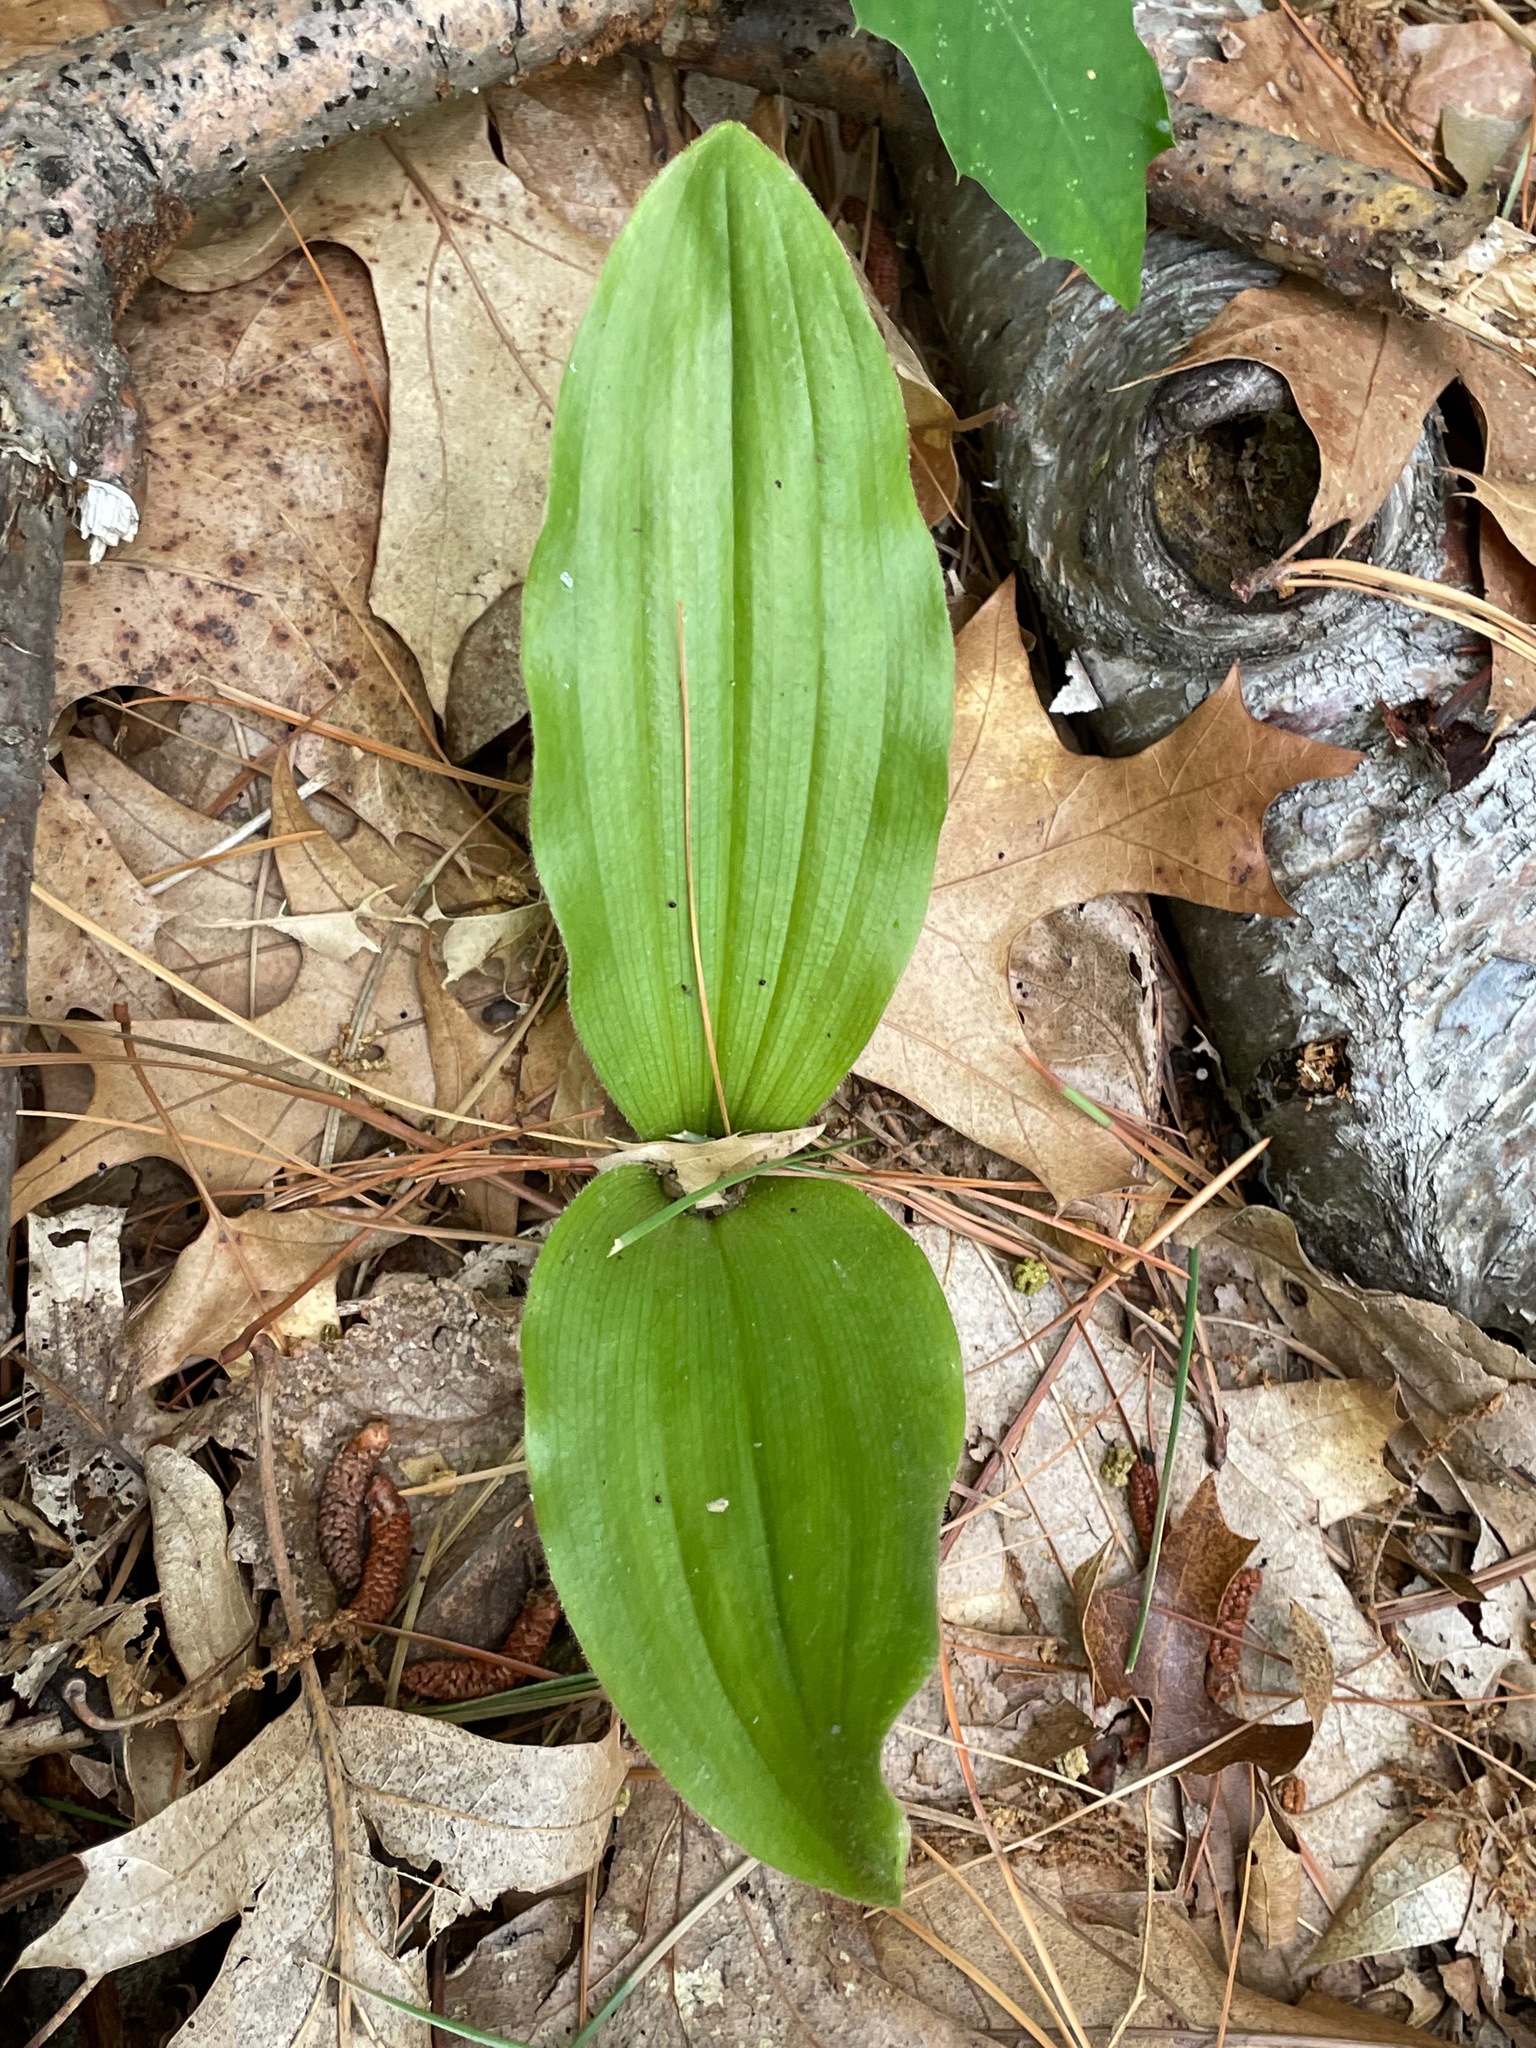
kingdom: Plantae
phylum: Tracheophyta
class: Liliopsida
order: Asparagales
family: Orchidaceae
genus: Cypripedium
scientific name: Cypripedium acaule
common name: Pink lady's-slipper
